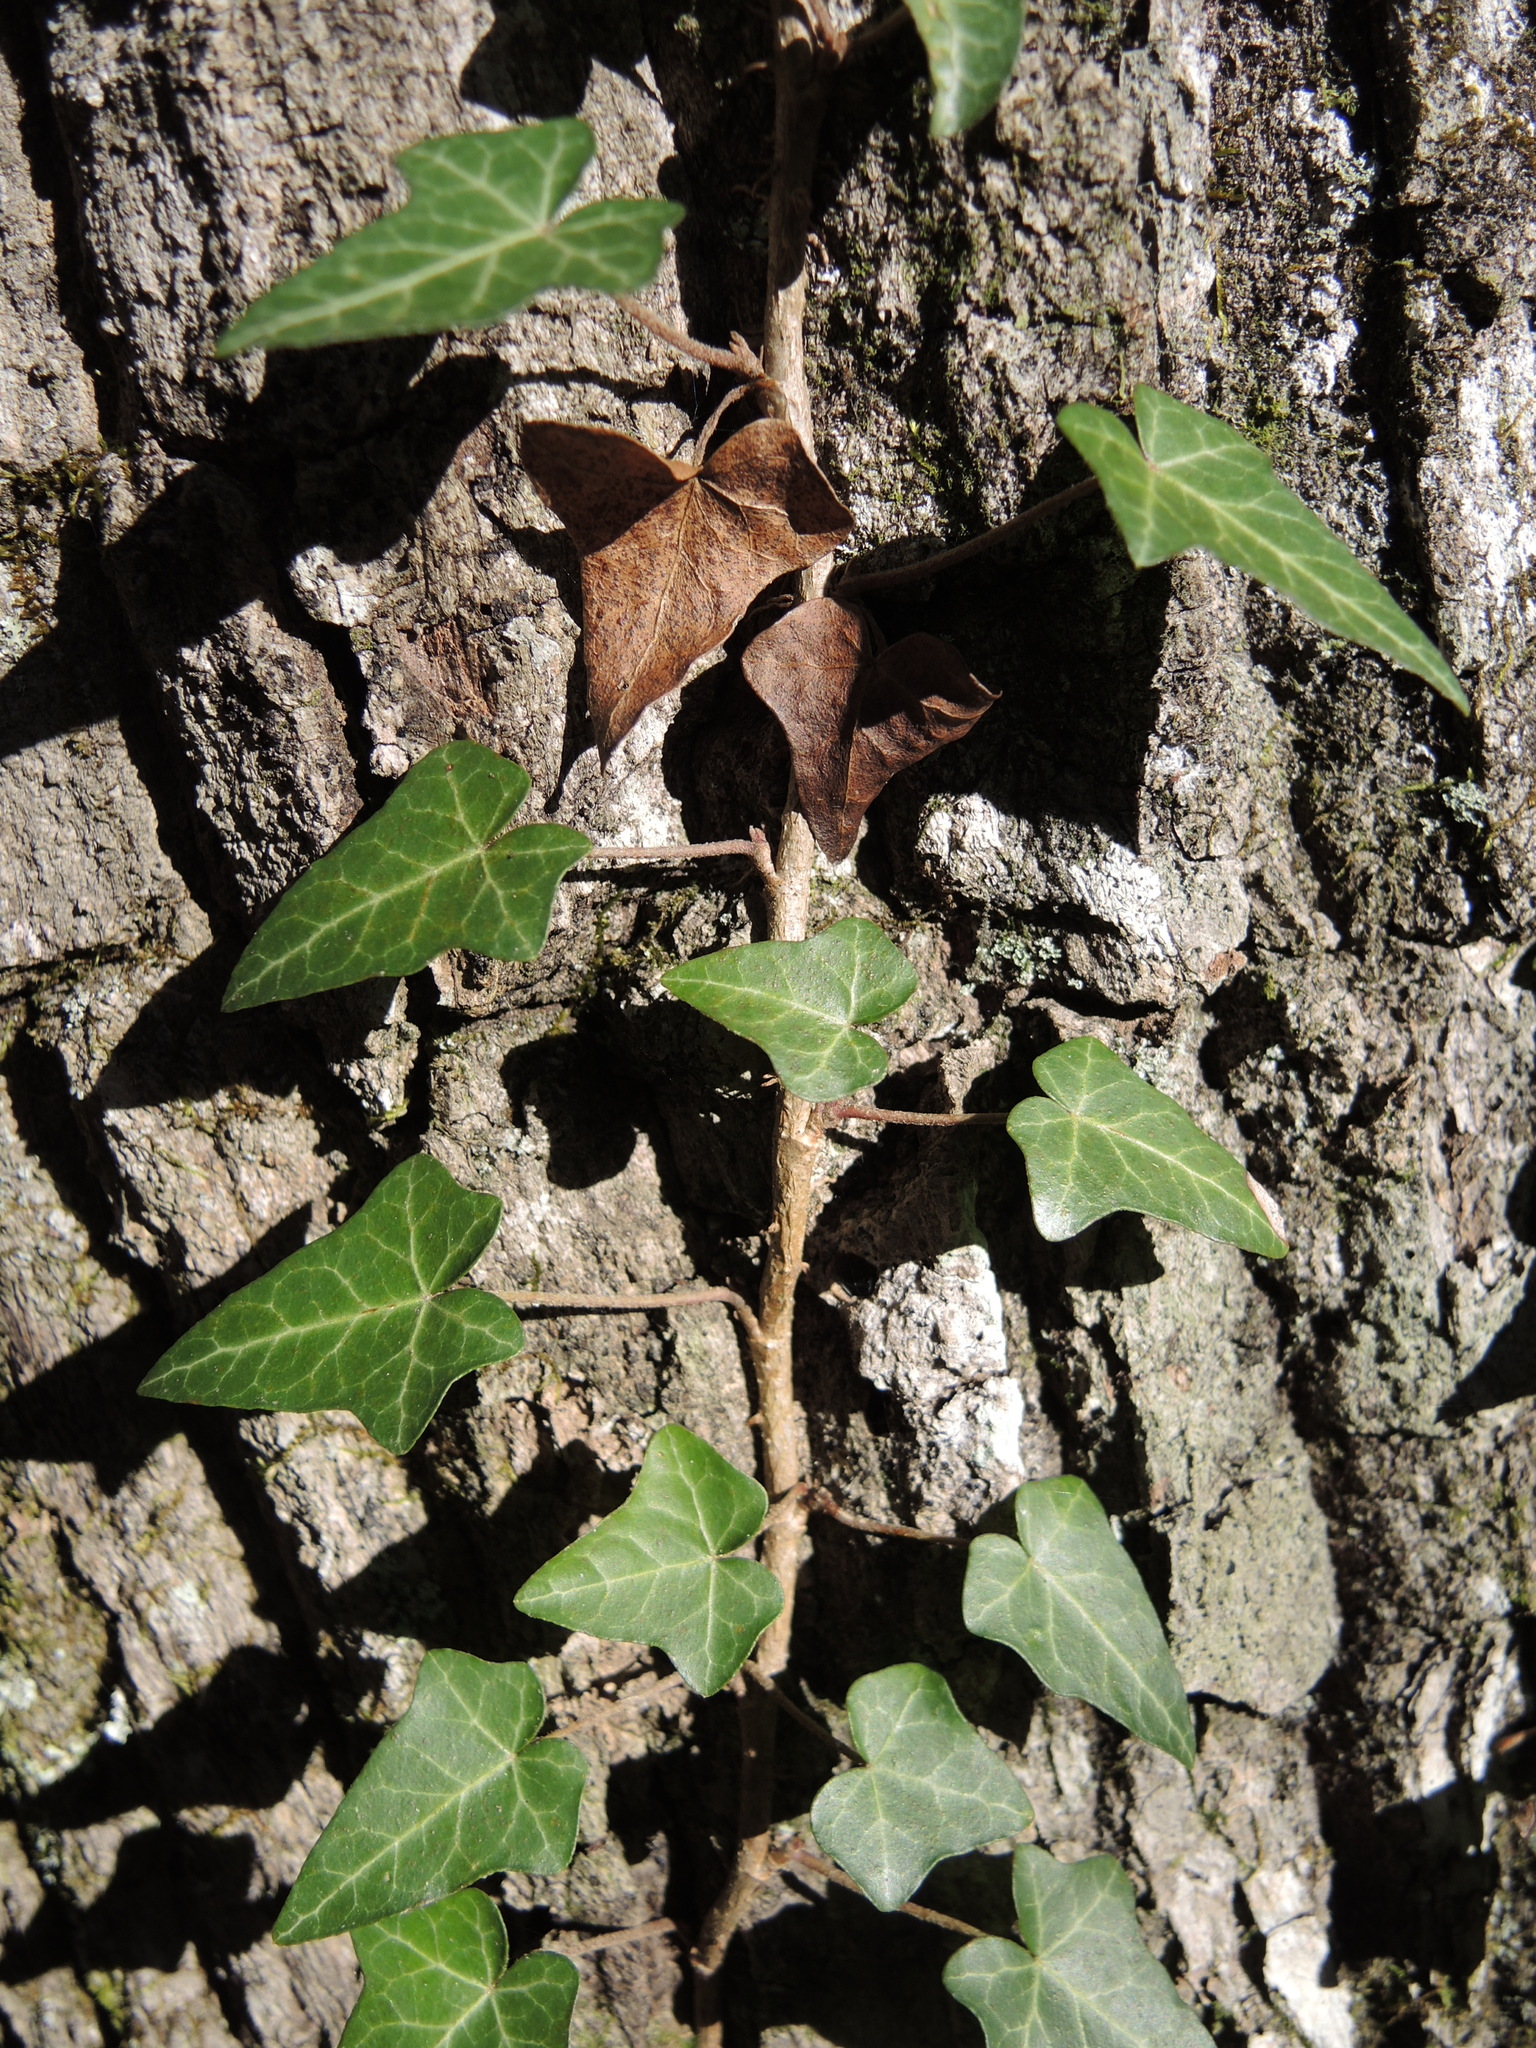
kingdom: Plantae
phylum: Tracheophyta
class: Magnoliopsida
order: Apiales
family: Araliaceae
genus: Hedera
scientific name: Hedera helix
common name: Ivy
